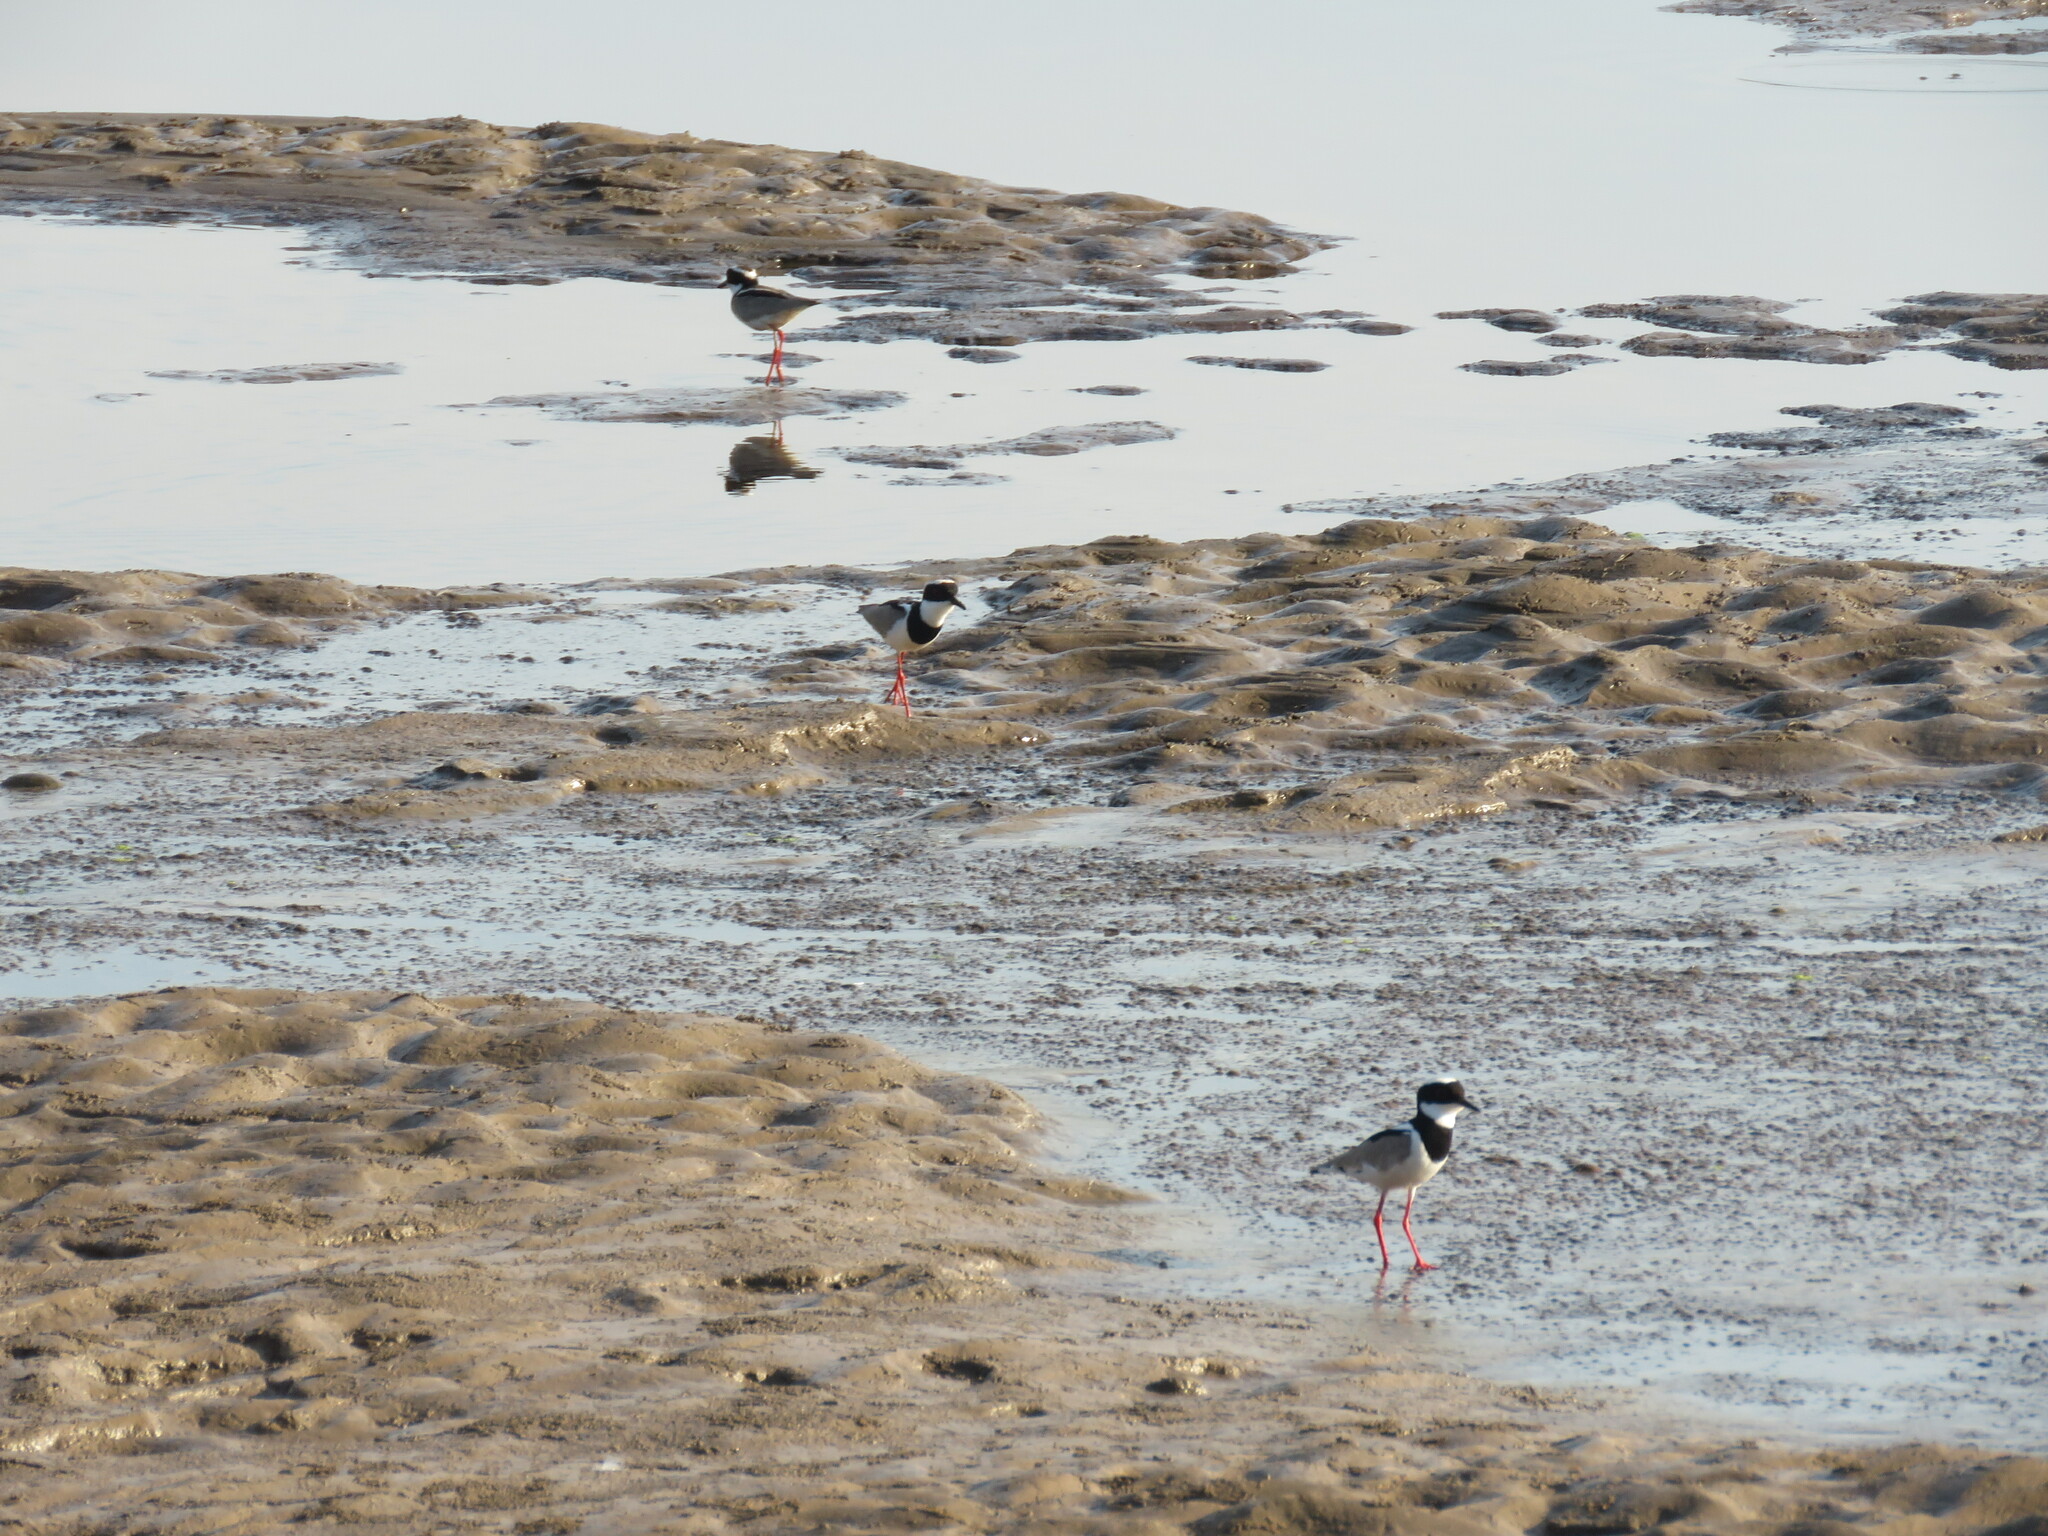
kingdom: Animalia
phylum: Chordata
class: Aves
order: Charadriiformes
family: Charadriidae
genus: Hoploxypterus
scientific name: Hoploxypterus cayanus
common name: Pied plover
